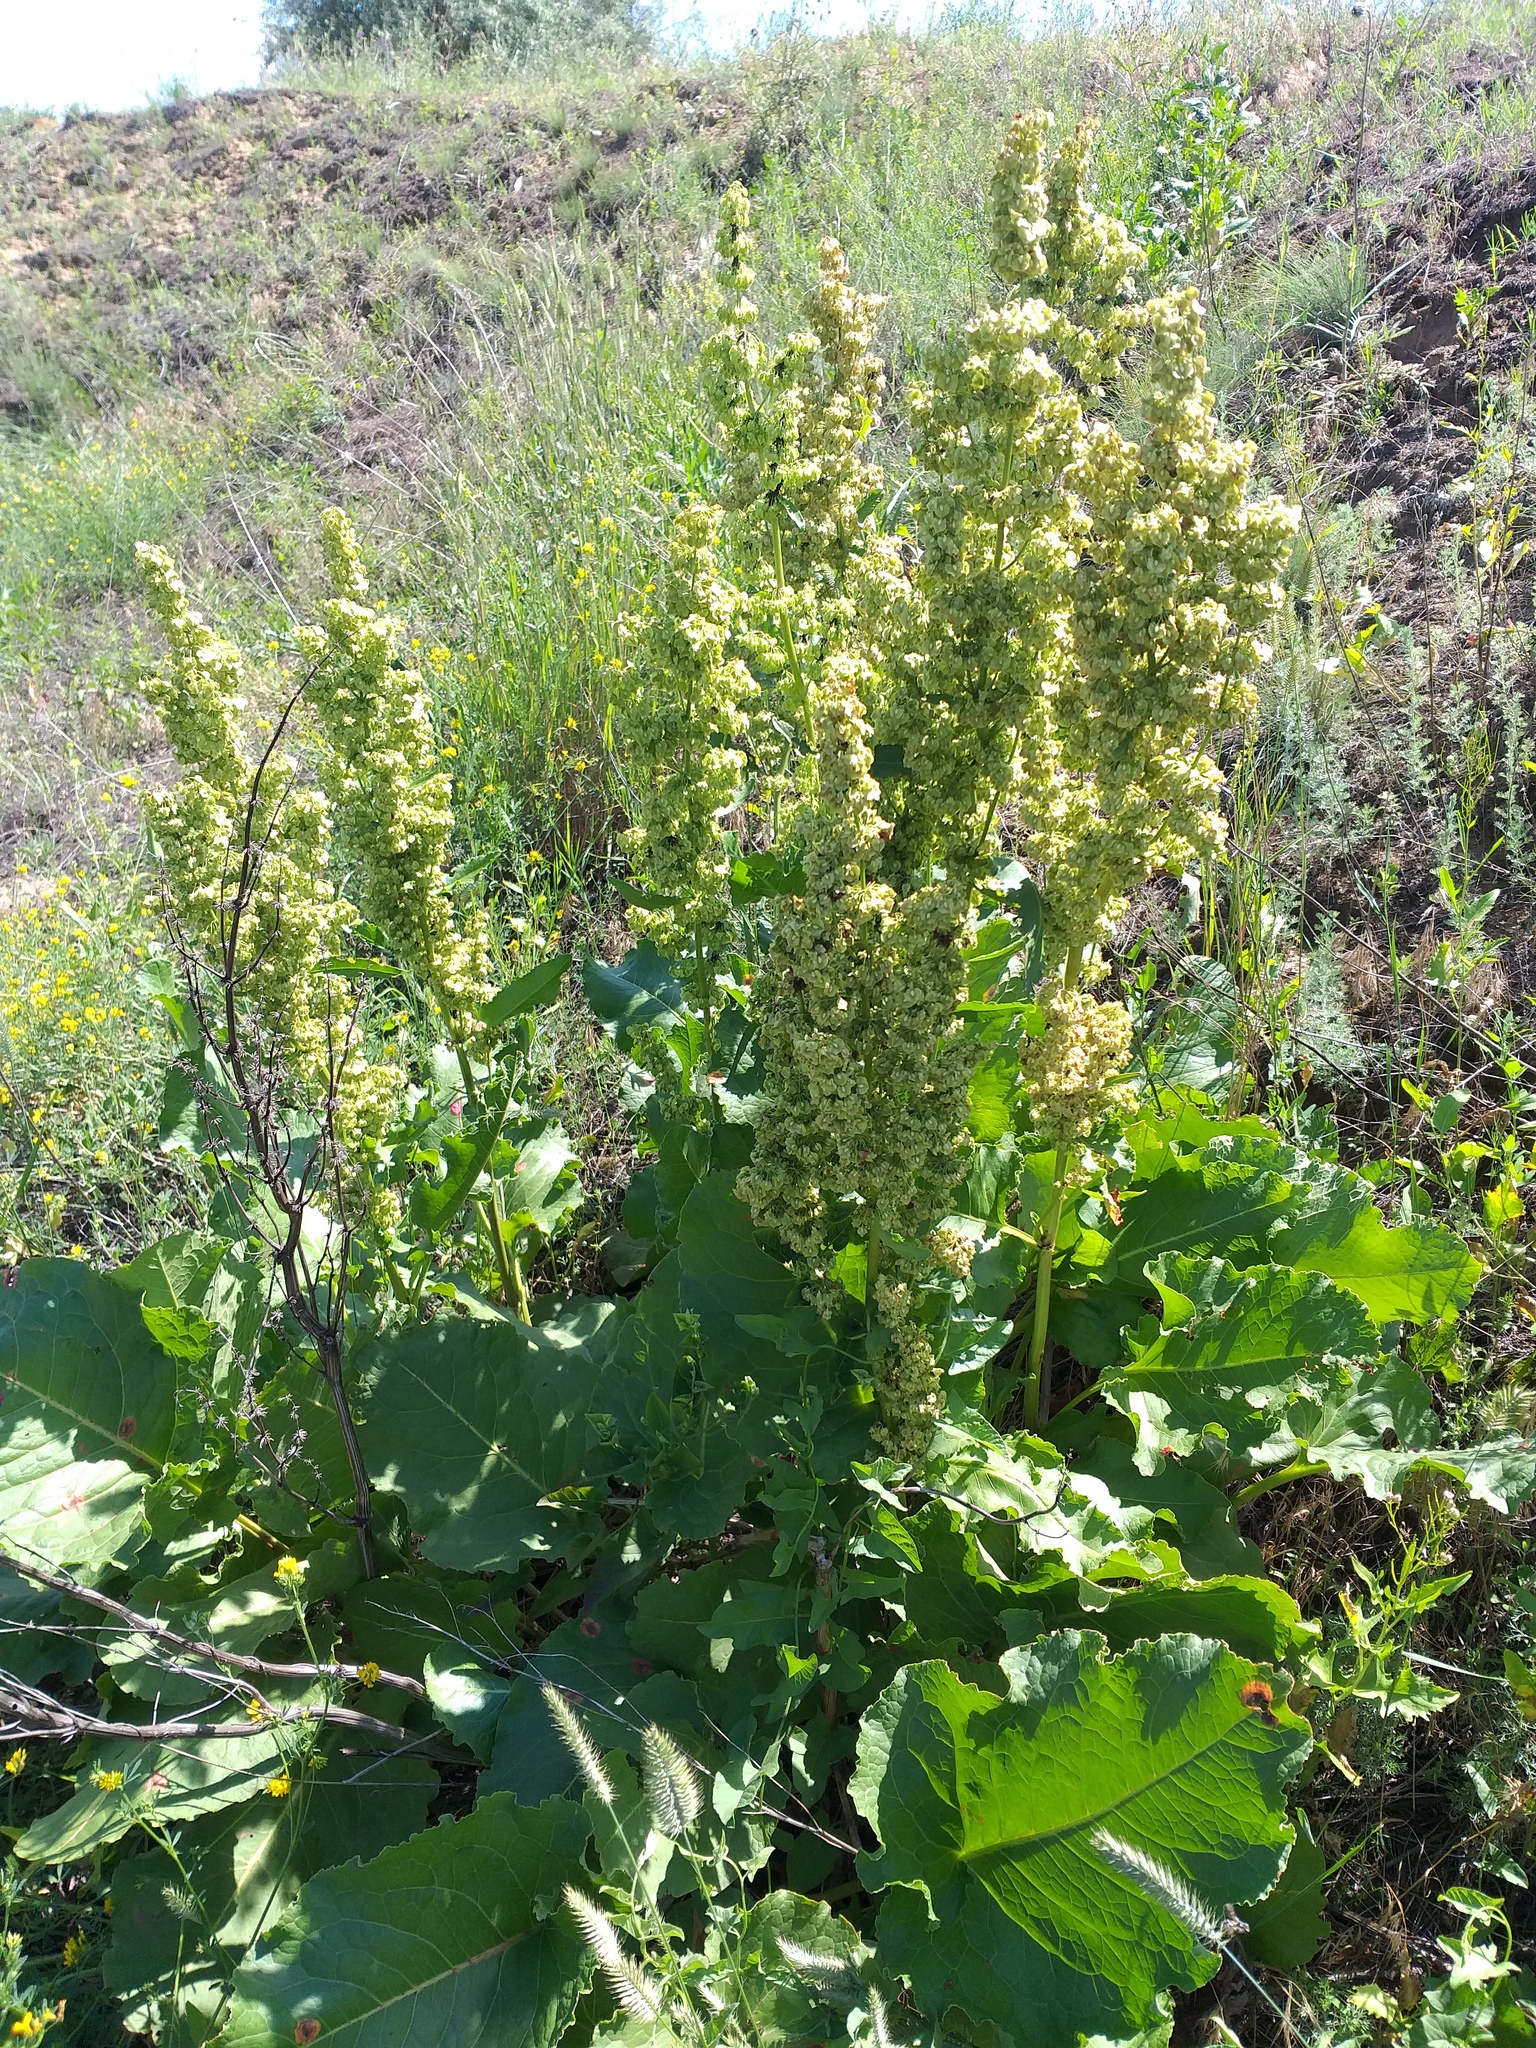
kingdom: Plantae
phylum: Tracheophyta
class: Magnoliopsida
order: Caryophyllales
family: Polygonaceae
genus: Rumex
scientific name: Rumex confertus
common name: Russian dock
